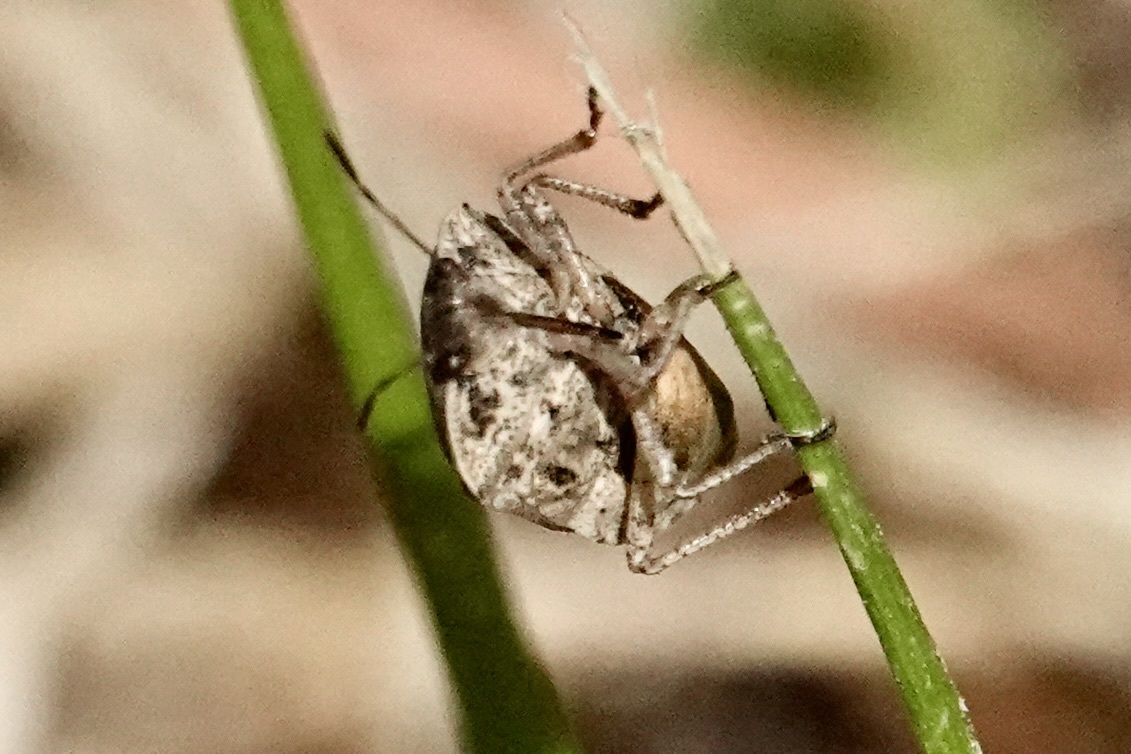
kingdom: Animalia
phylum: Arthropoda
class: Insecta
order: Hemiptera
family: Pentatomidae
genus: Hymenarcys
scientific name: Hymenarcys nervosa
